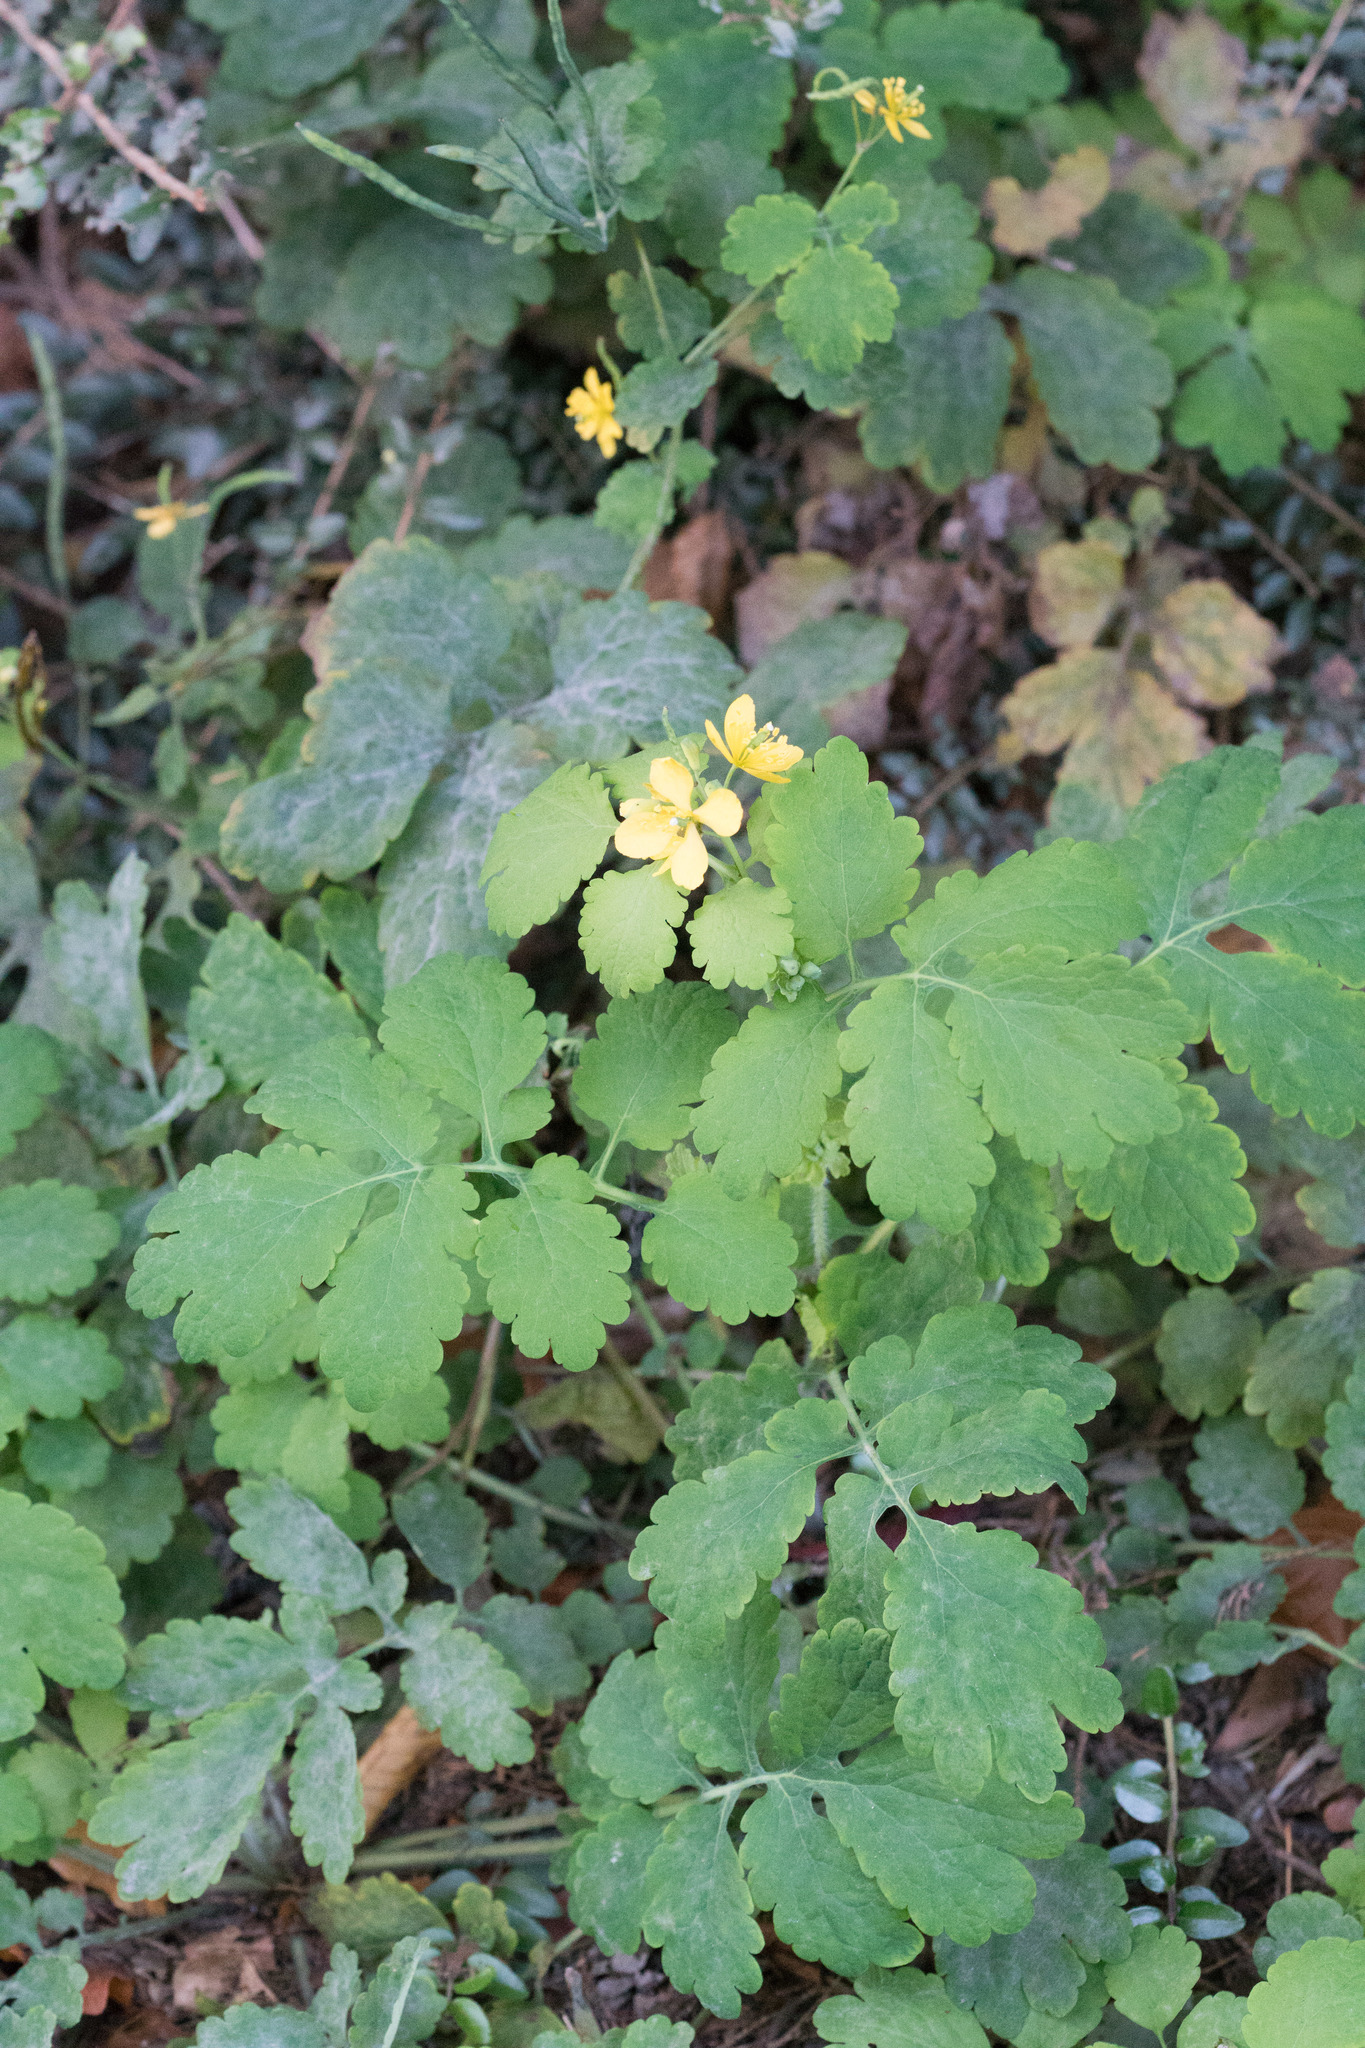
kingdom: Plantae
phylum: Tracheophyta
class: Magnoliopsida
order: Ranunculales
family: Papaveraceae
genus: Chelidonium
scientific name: Chelidonium majus
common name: Greater celandine
